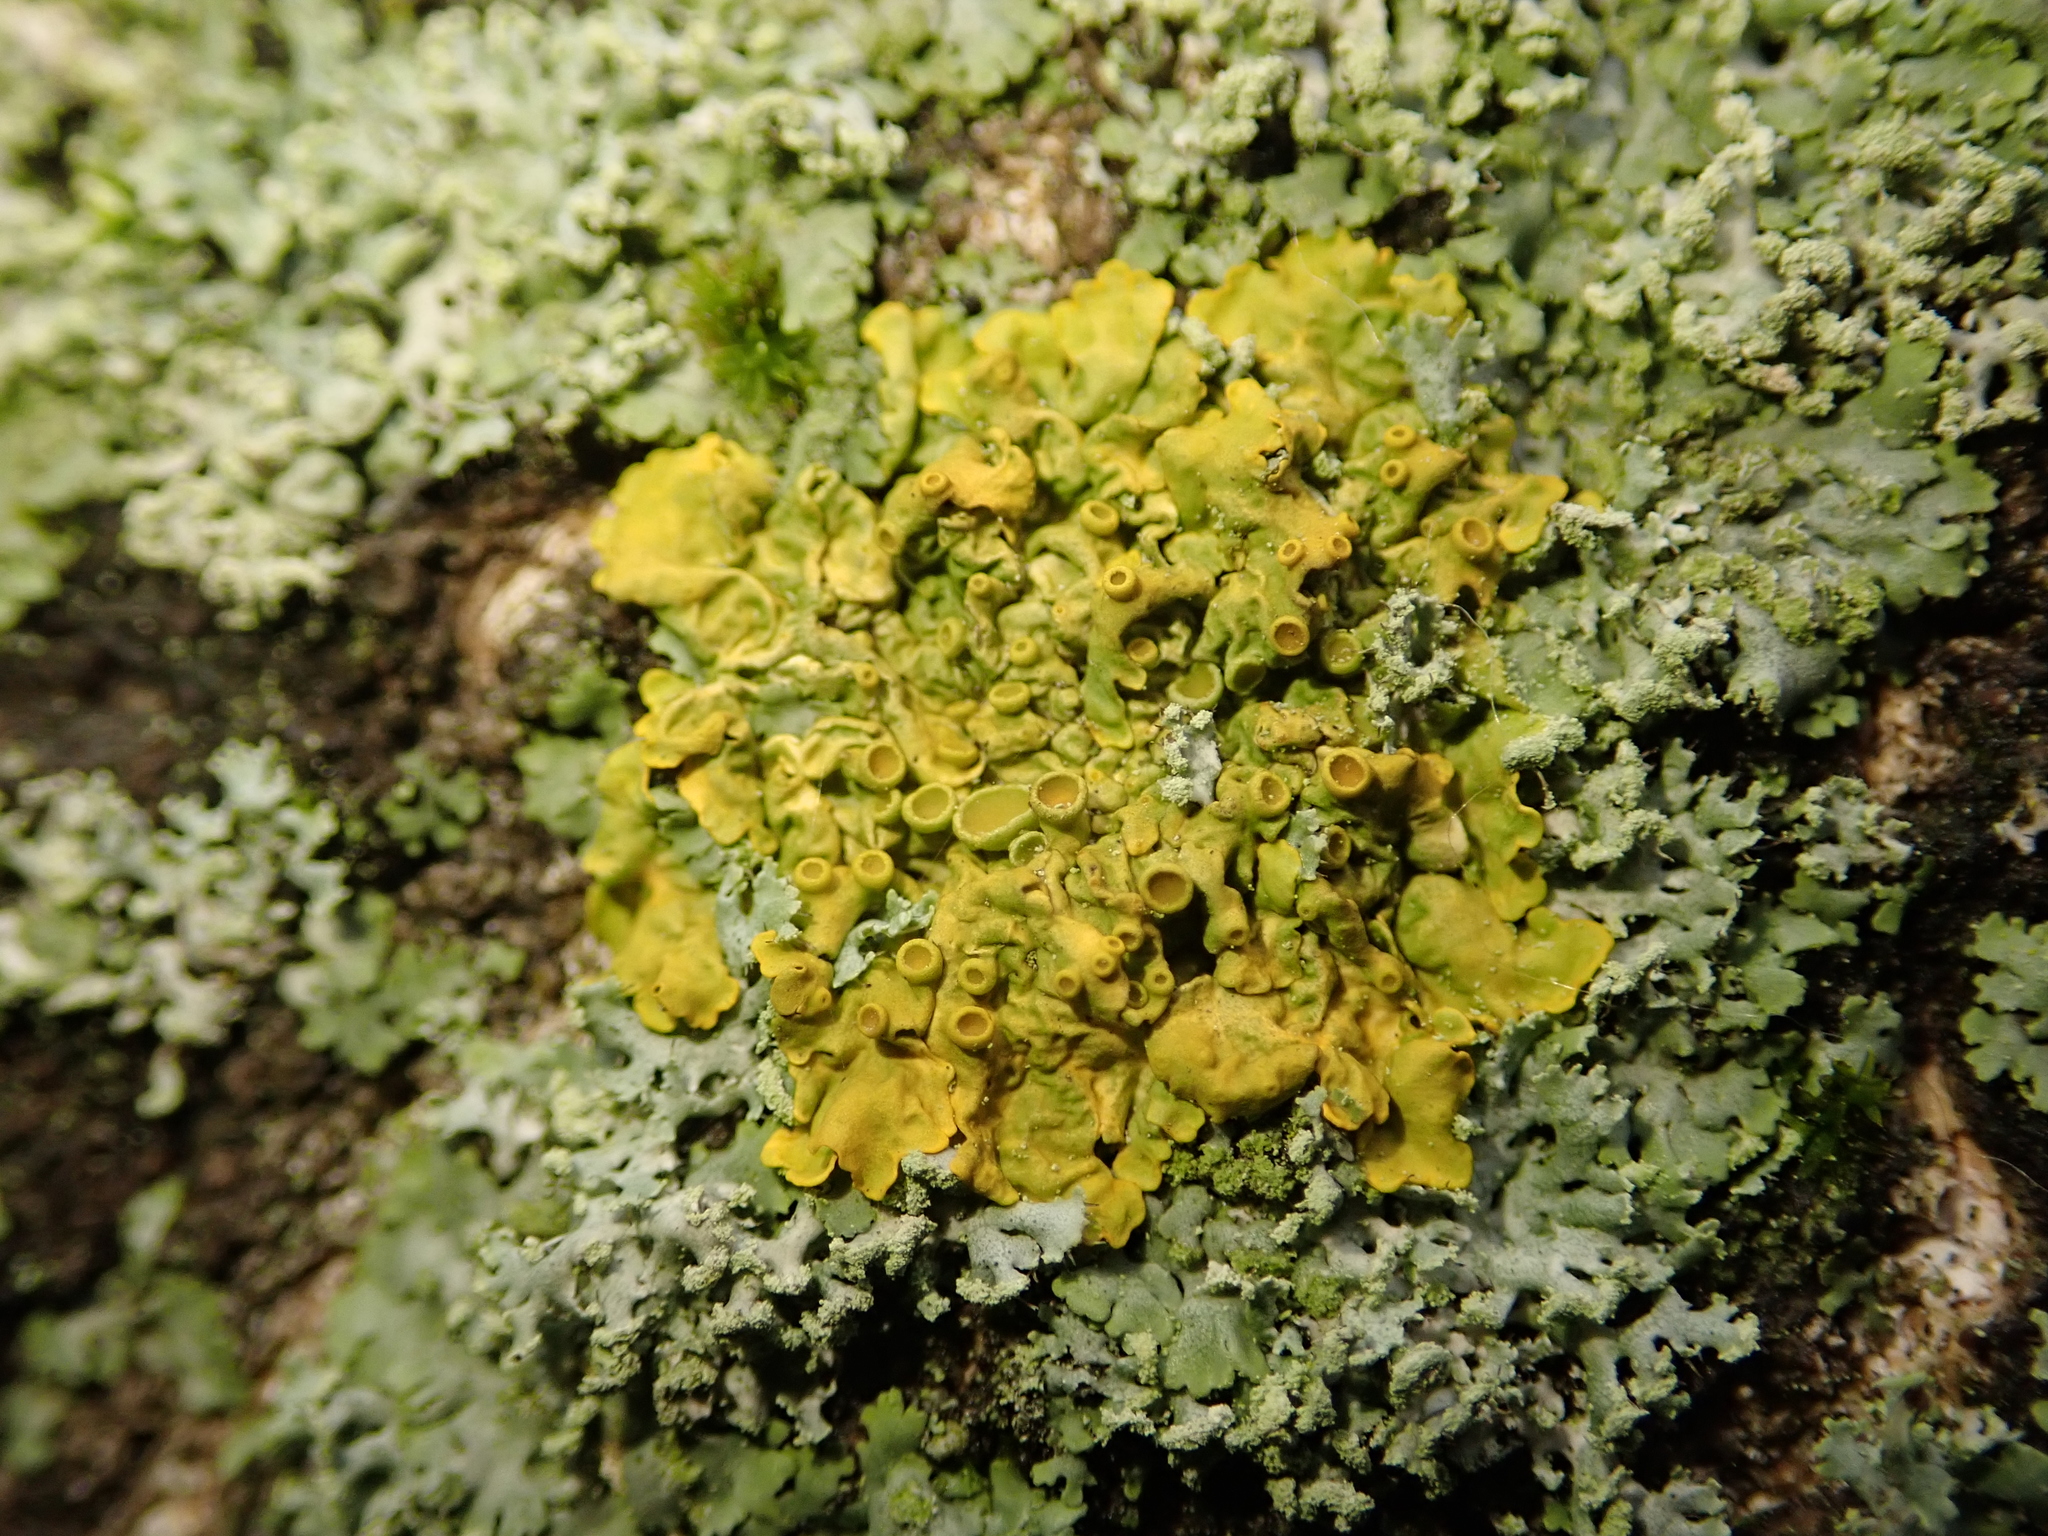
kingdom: Fungi
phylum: Ascomycota
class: Lecanoromycetes
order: Teloschistales
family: Teloschistaceae
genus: Xanthoria
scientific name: Xanthoria parietina
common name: Common orange lichen
